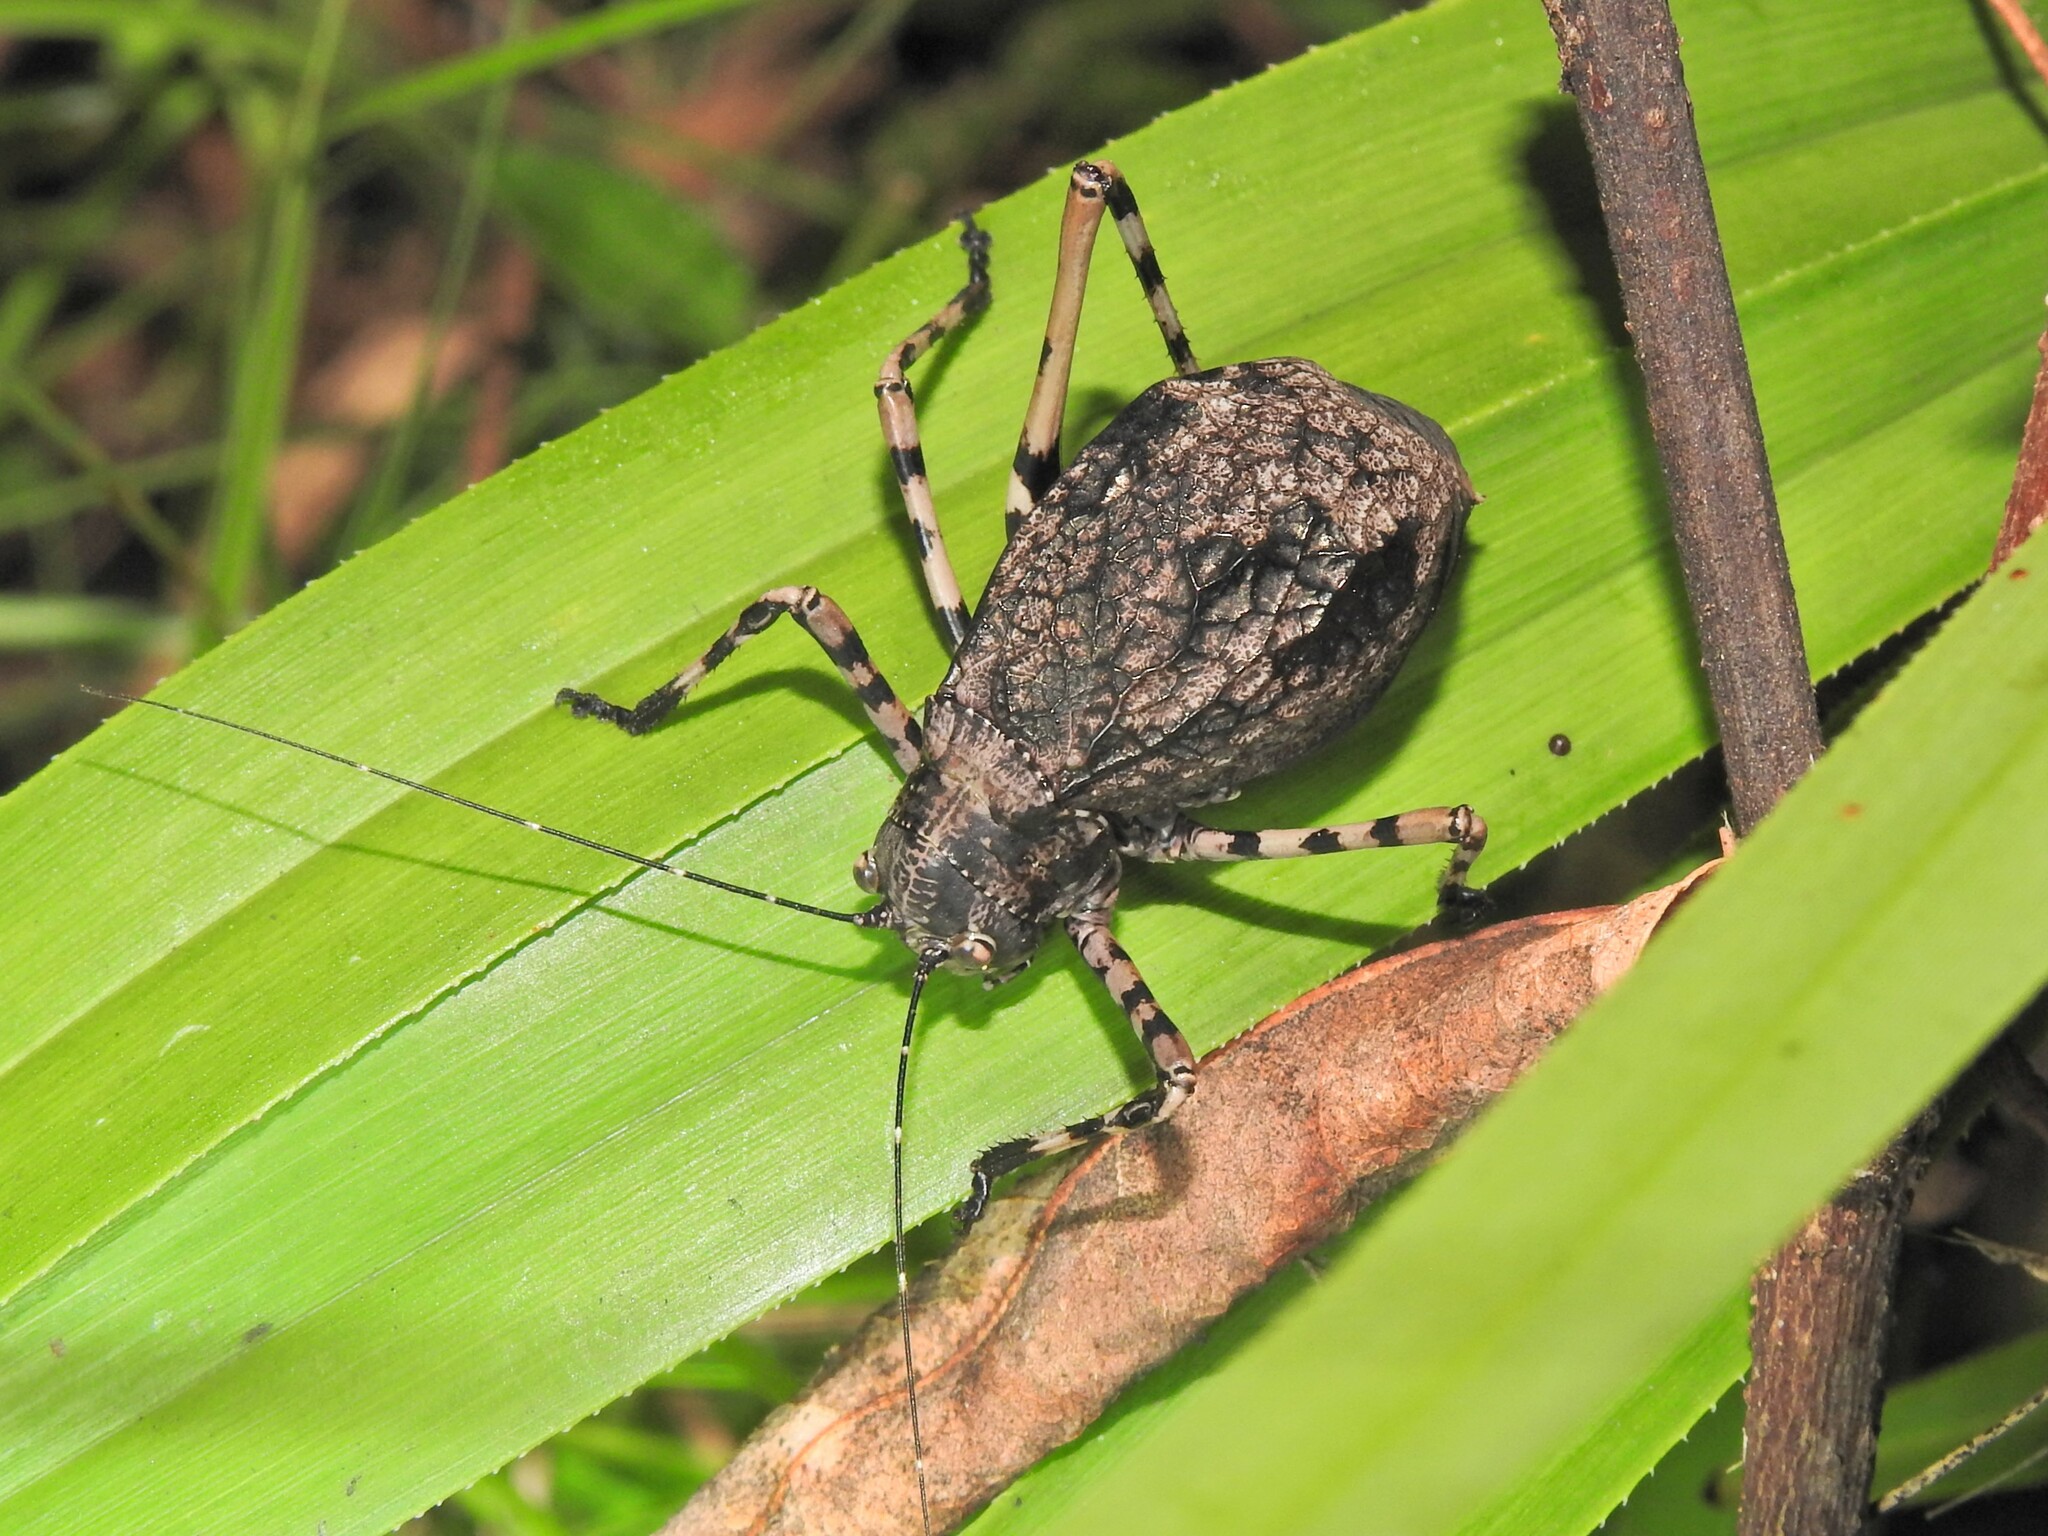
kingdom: Animalia
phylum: Arthropoda
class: Insecta
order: Orthoptera
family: Tettigoniidae
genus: Acripeza
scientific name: Acripeza reticulata
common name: Mountain katydid
